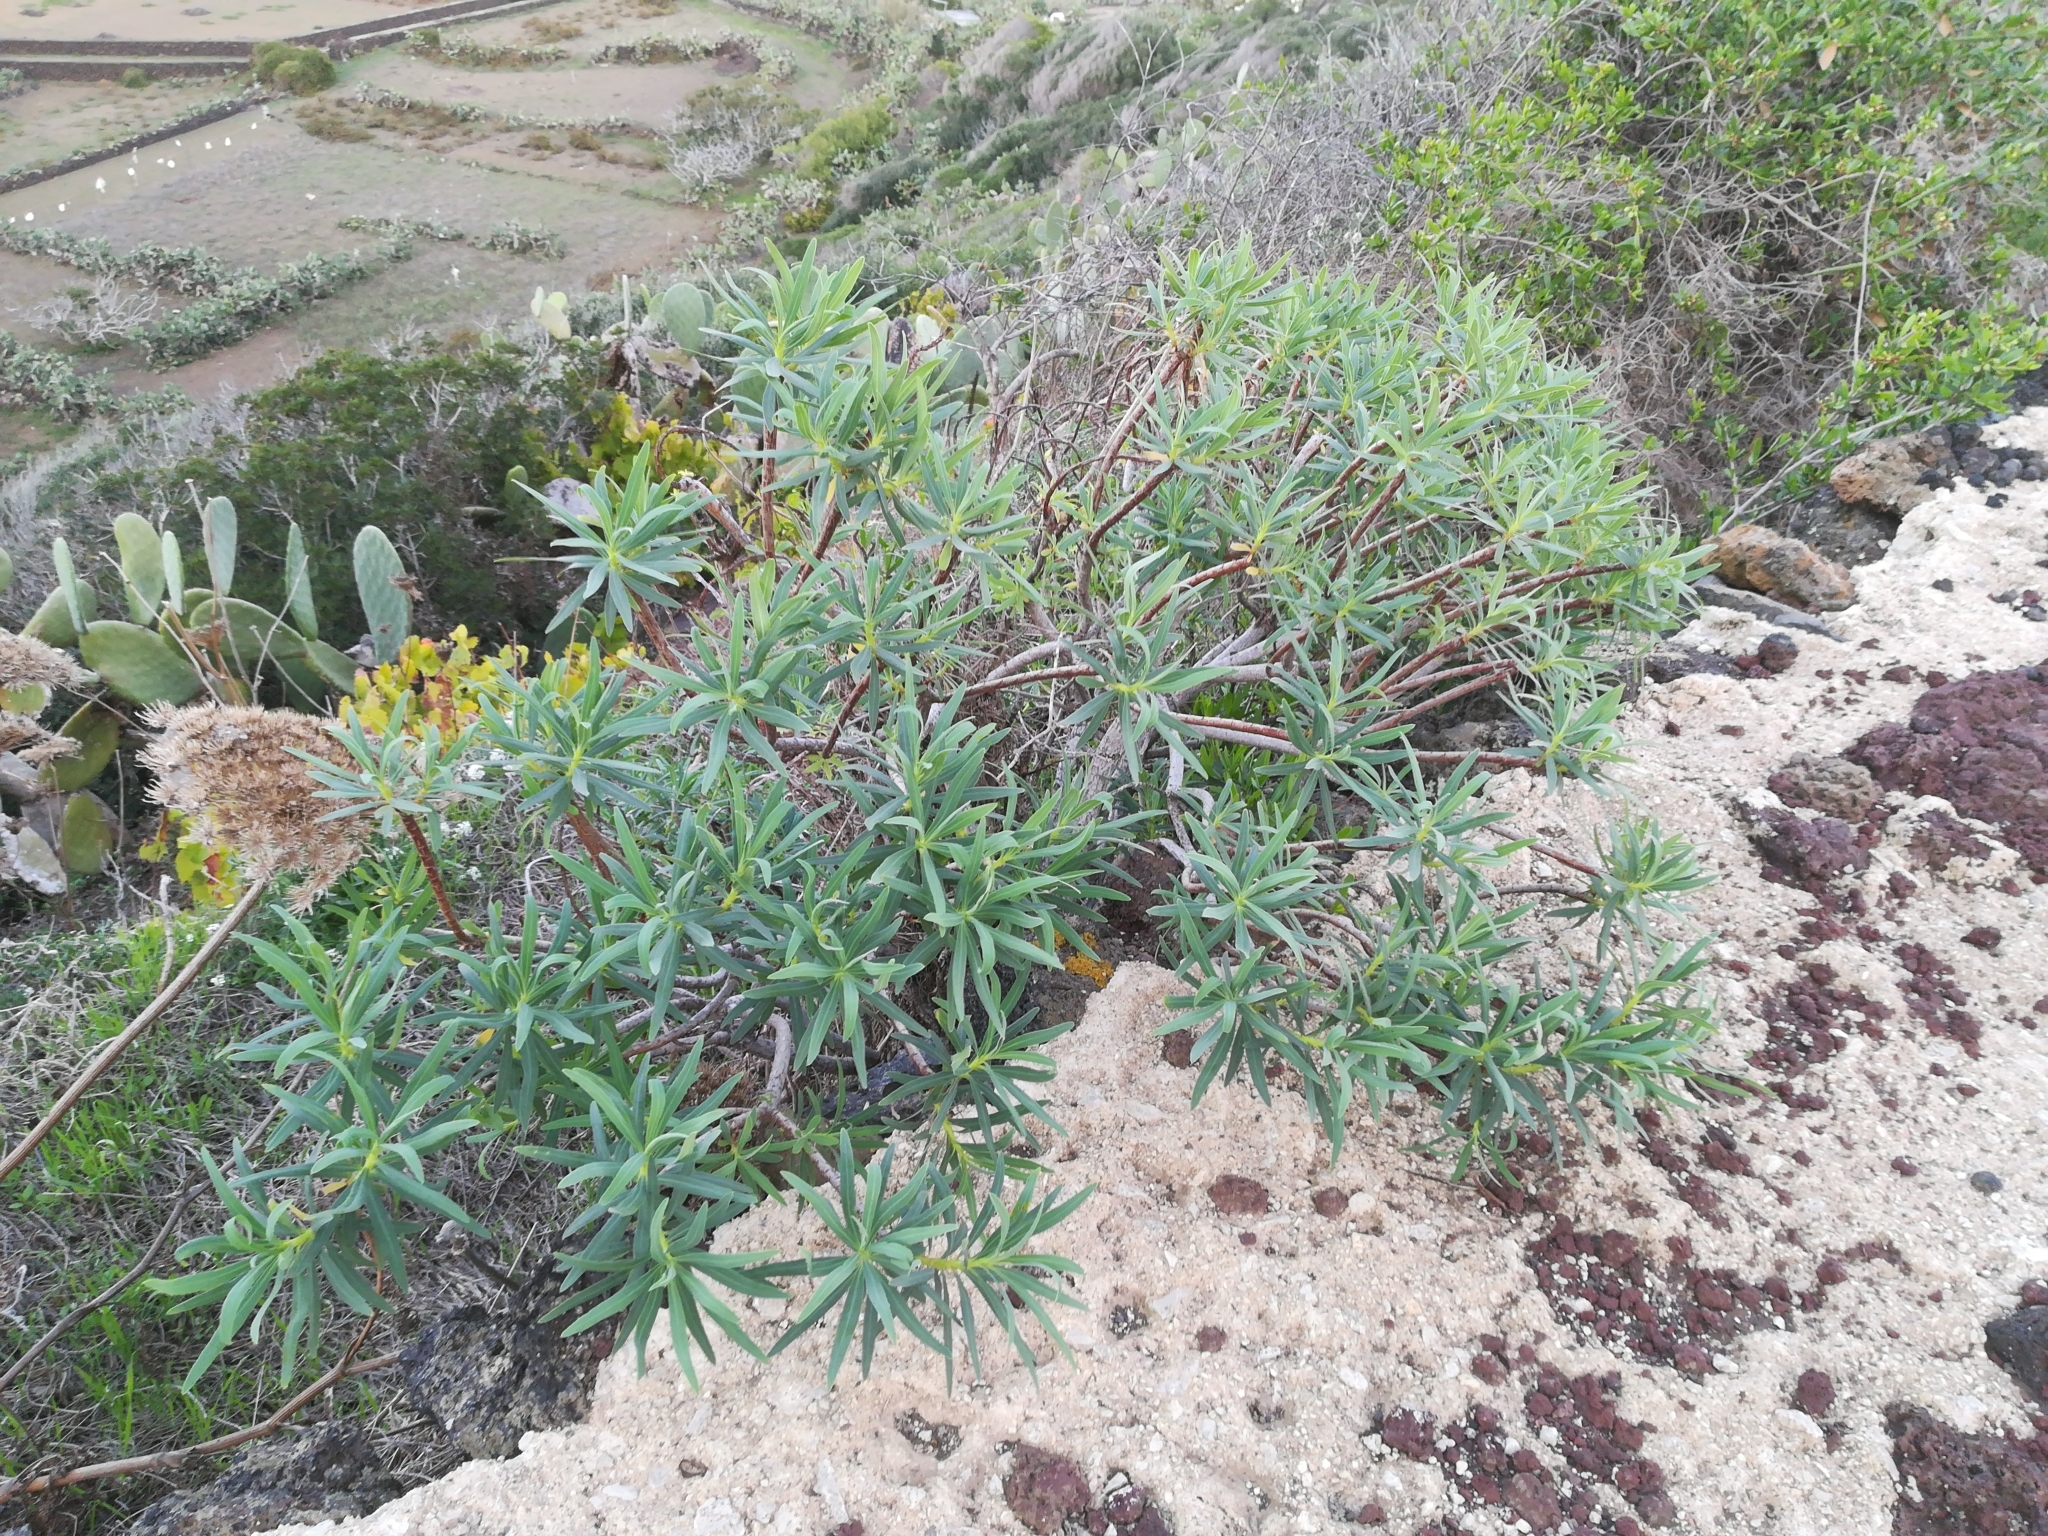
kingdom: Plantae
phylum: Tracheophyta
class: Magnoliopsida
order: Malpighiales
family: Euphorbiaceae
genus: Euphorbia
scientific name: Euphorbia dendroides
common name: Tree spurge
